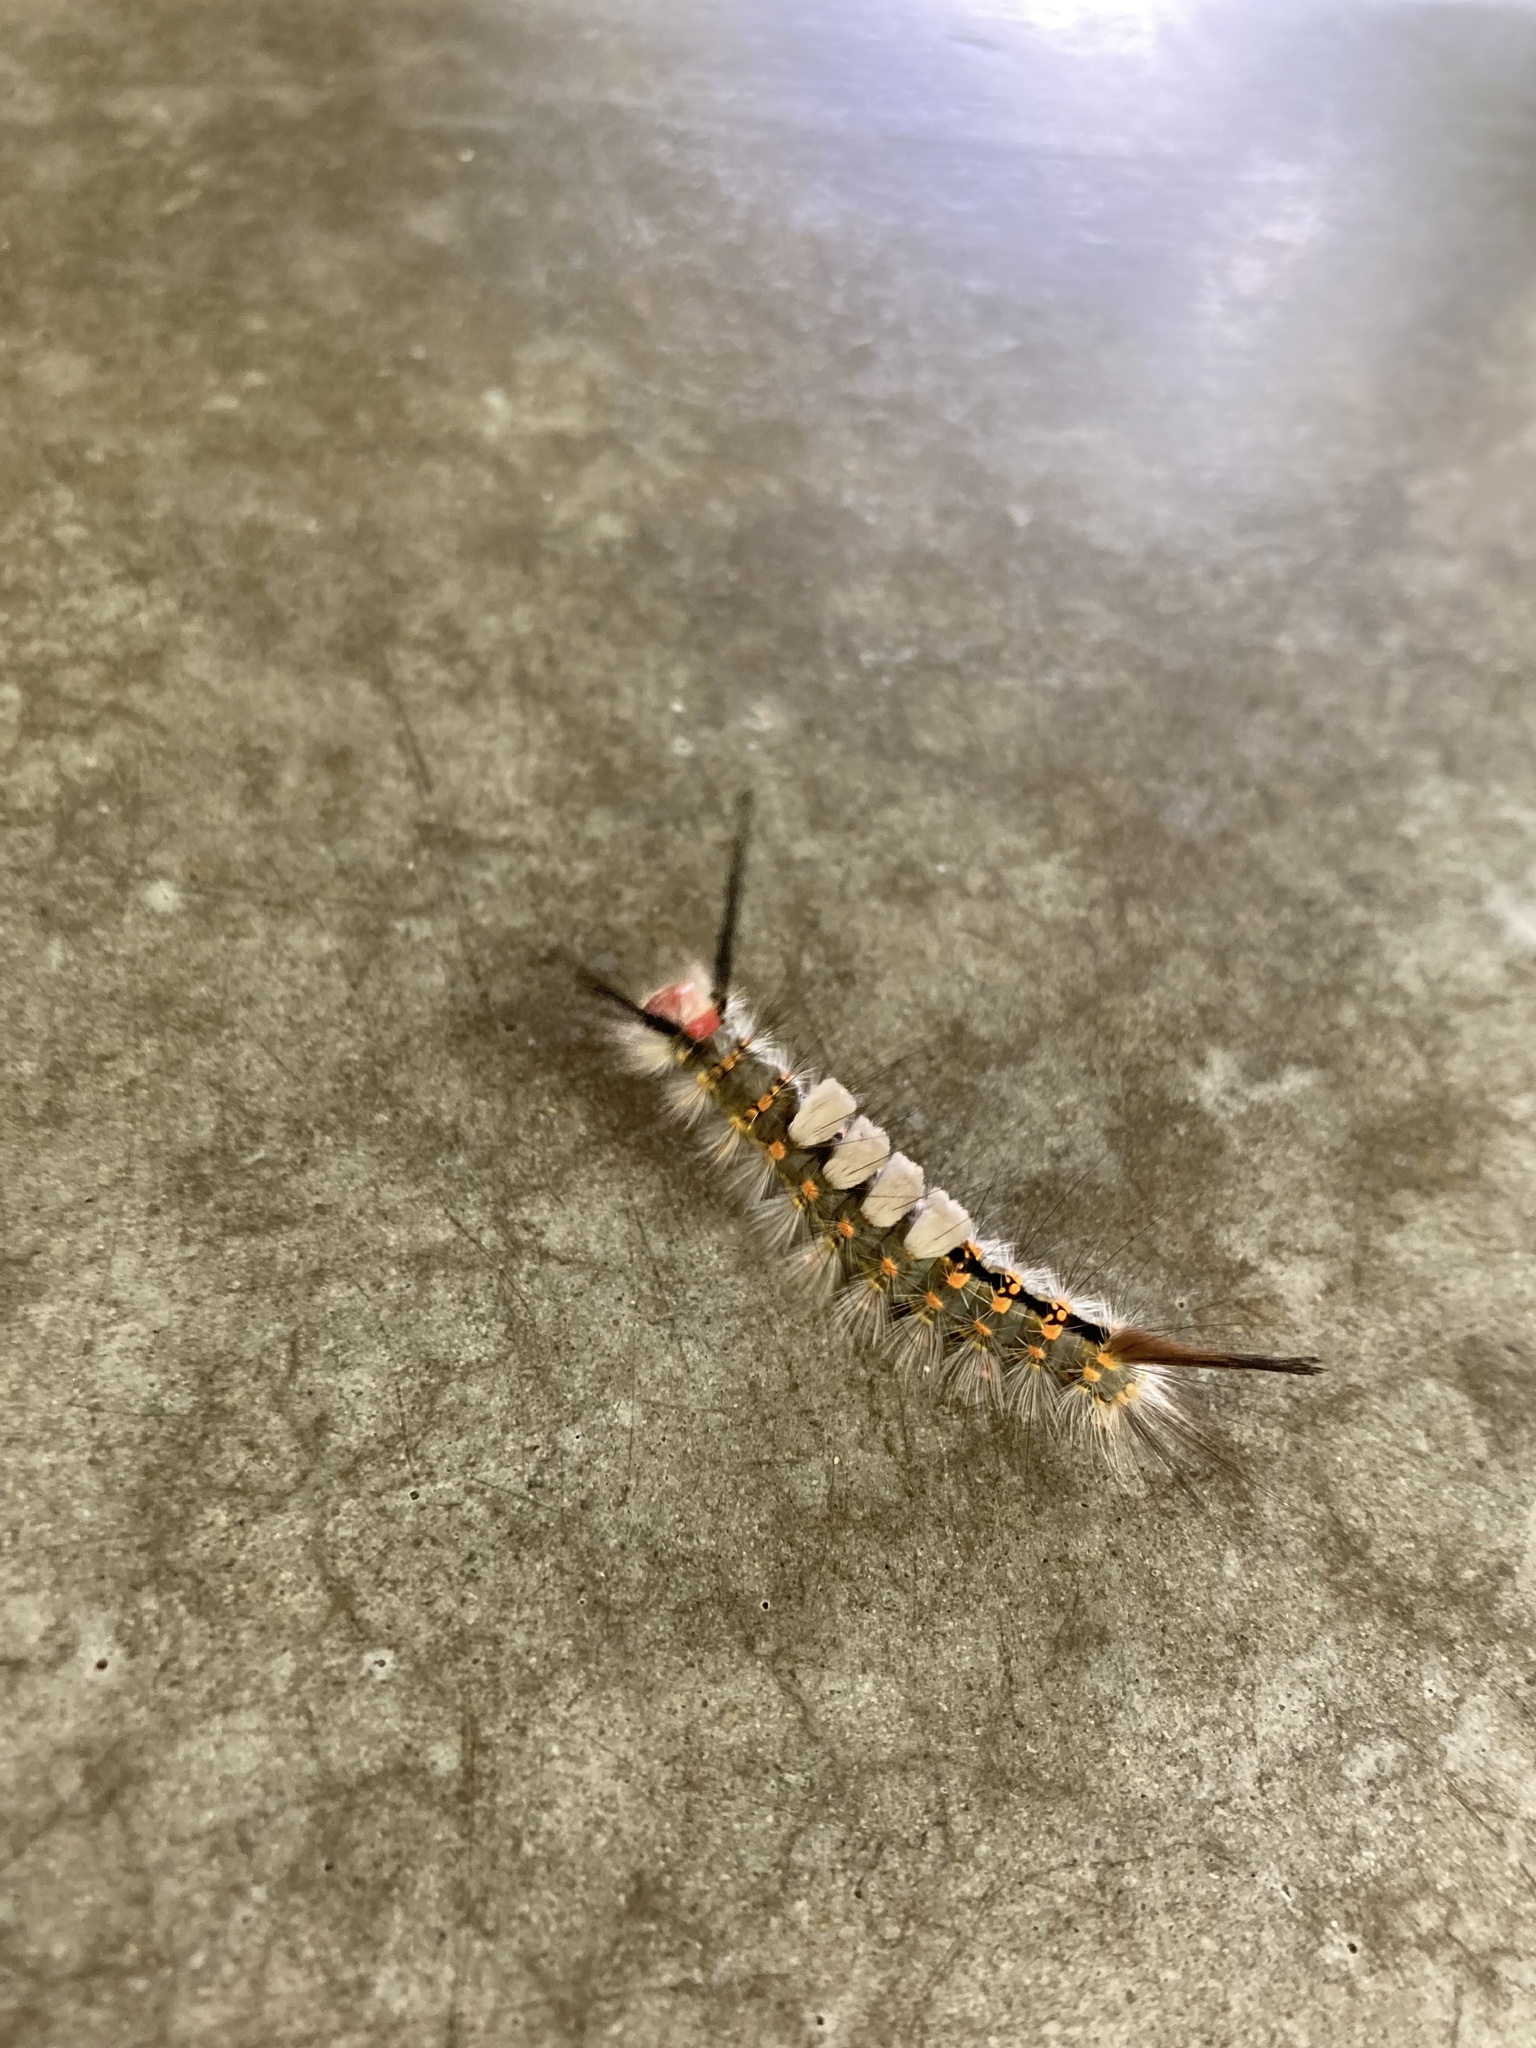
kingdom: Animalia
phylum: Arthropoda
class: Insecta
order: Lepidoptera
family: Erebidae
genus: Orgyia
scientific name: Orgyia detrita
